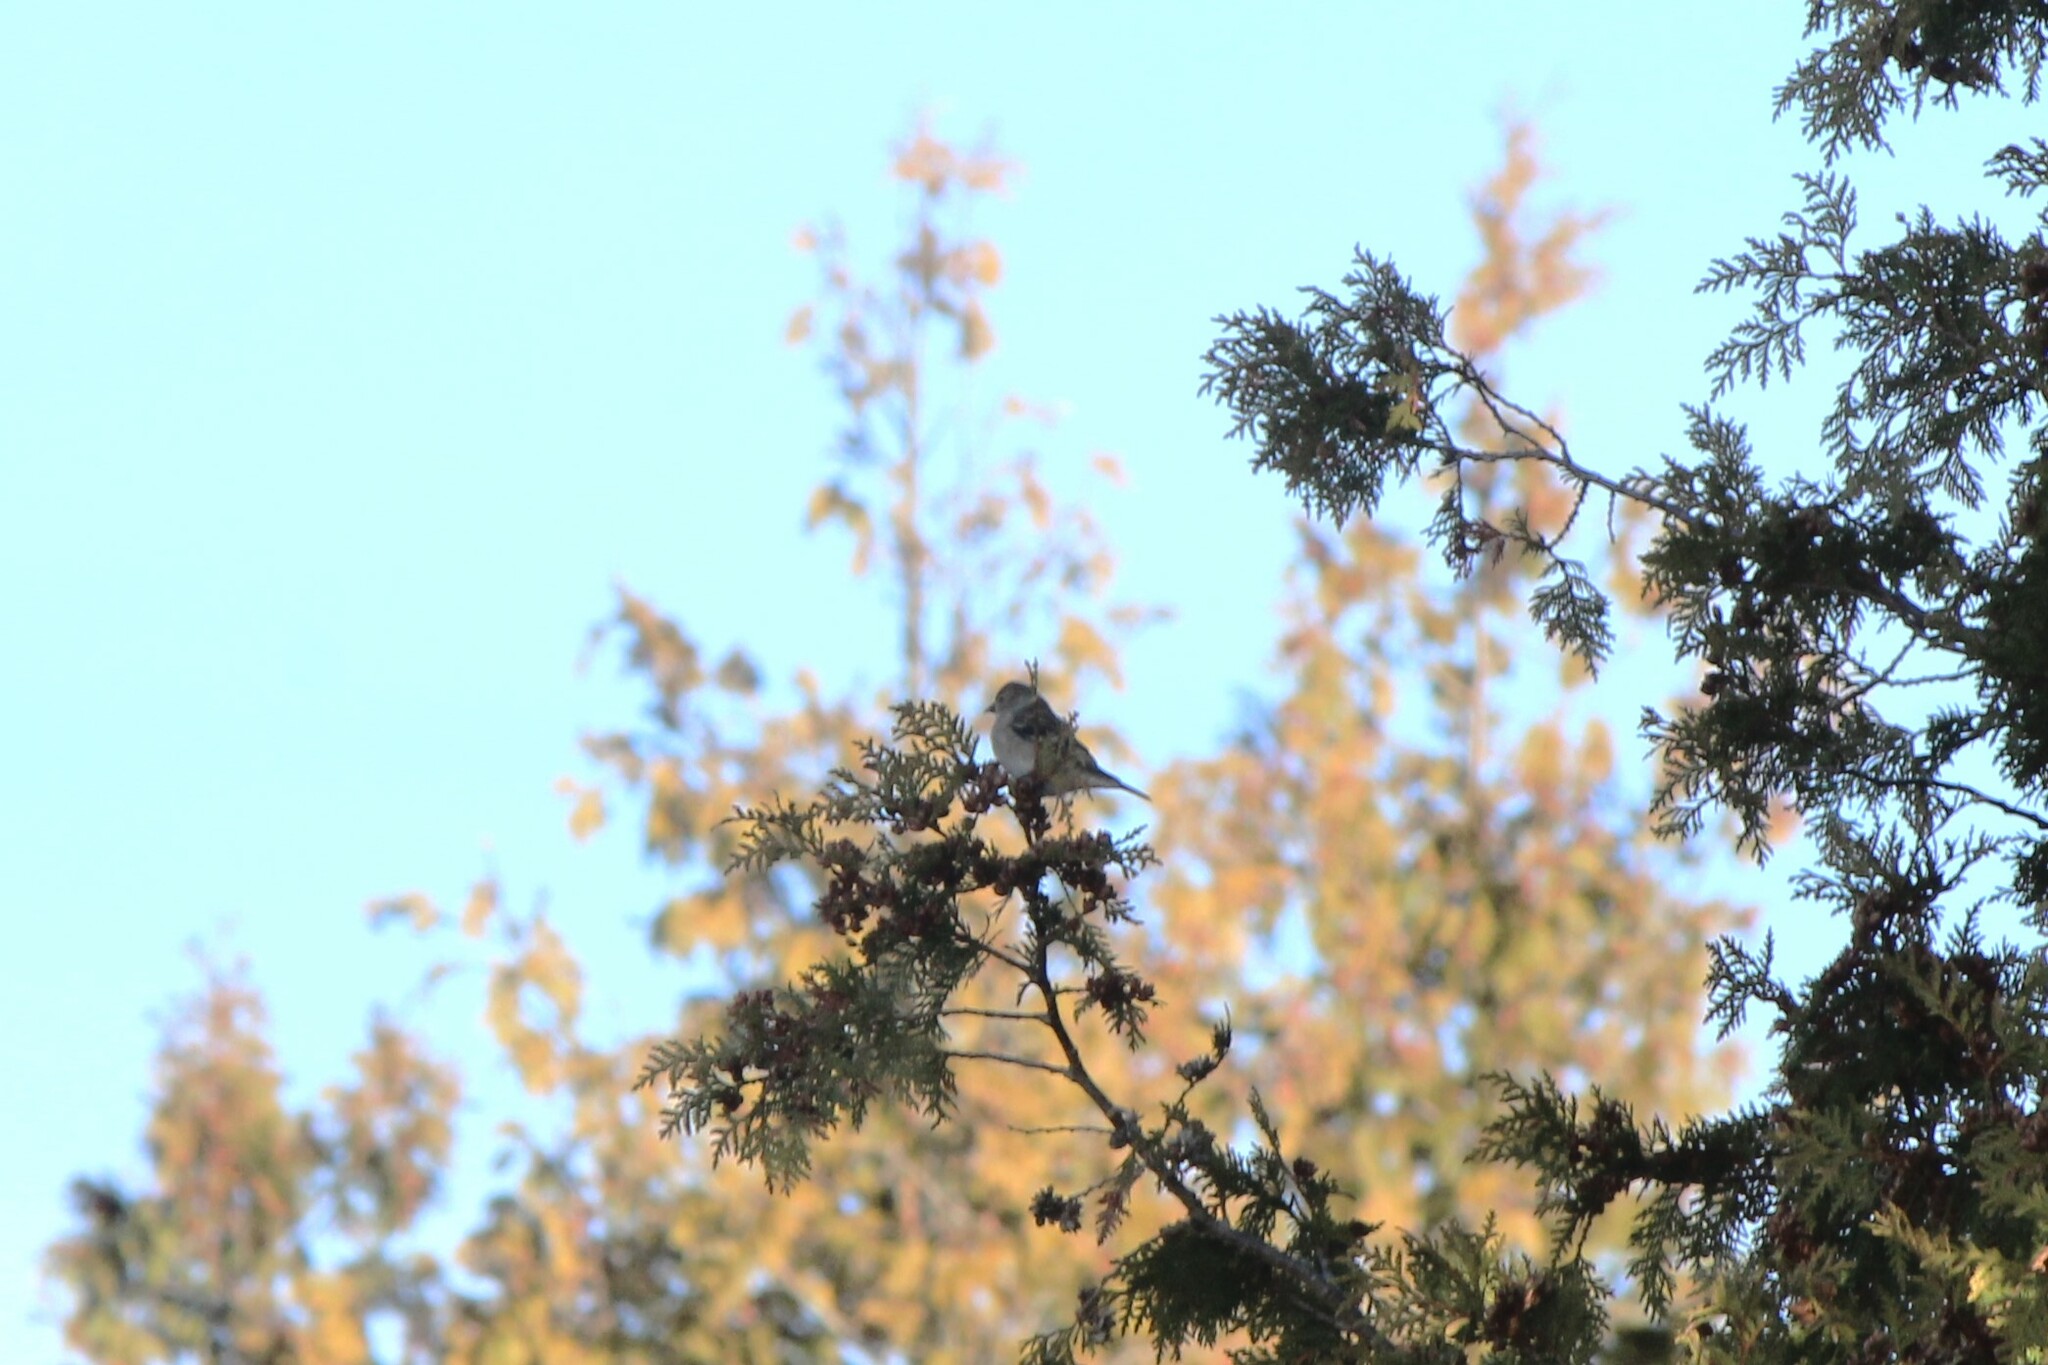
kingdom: Animalia
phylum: Chordata
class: Aves
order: Passeriformes
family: Fringillidae
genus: Spinus
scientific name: Spinus tristis
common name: American goldfinch
